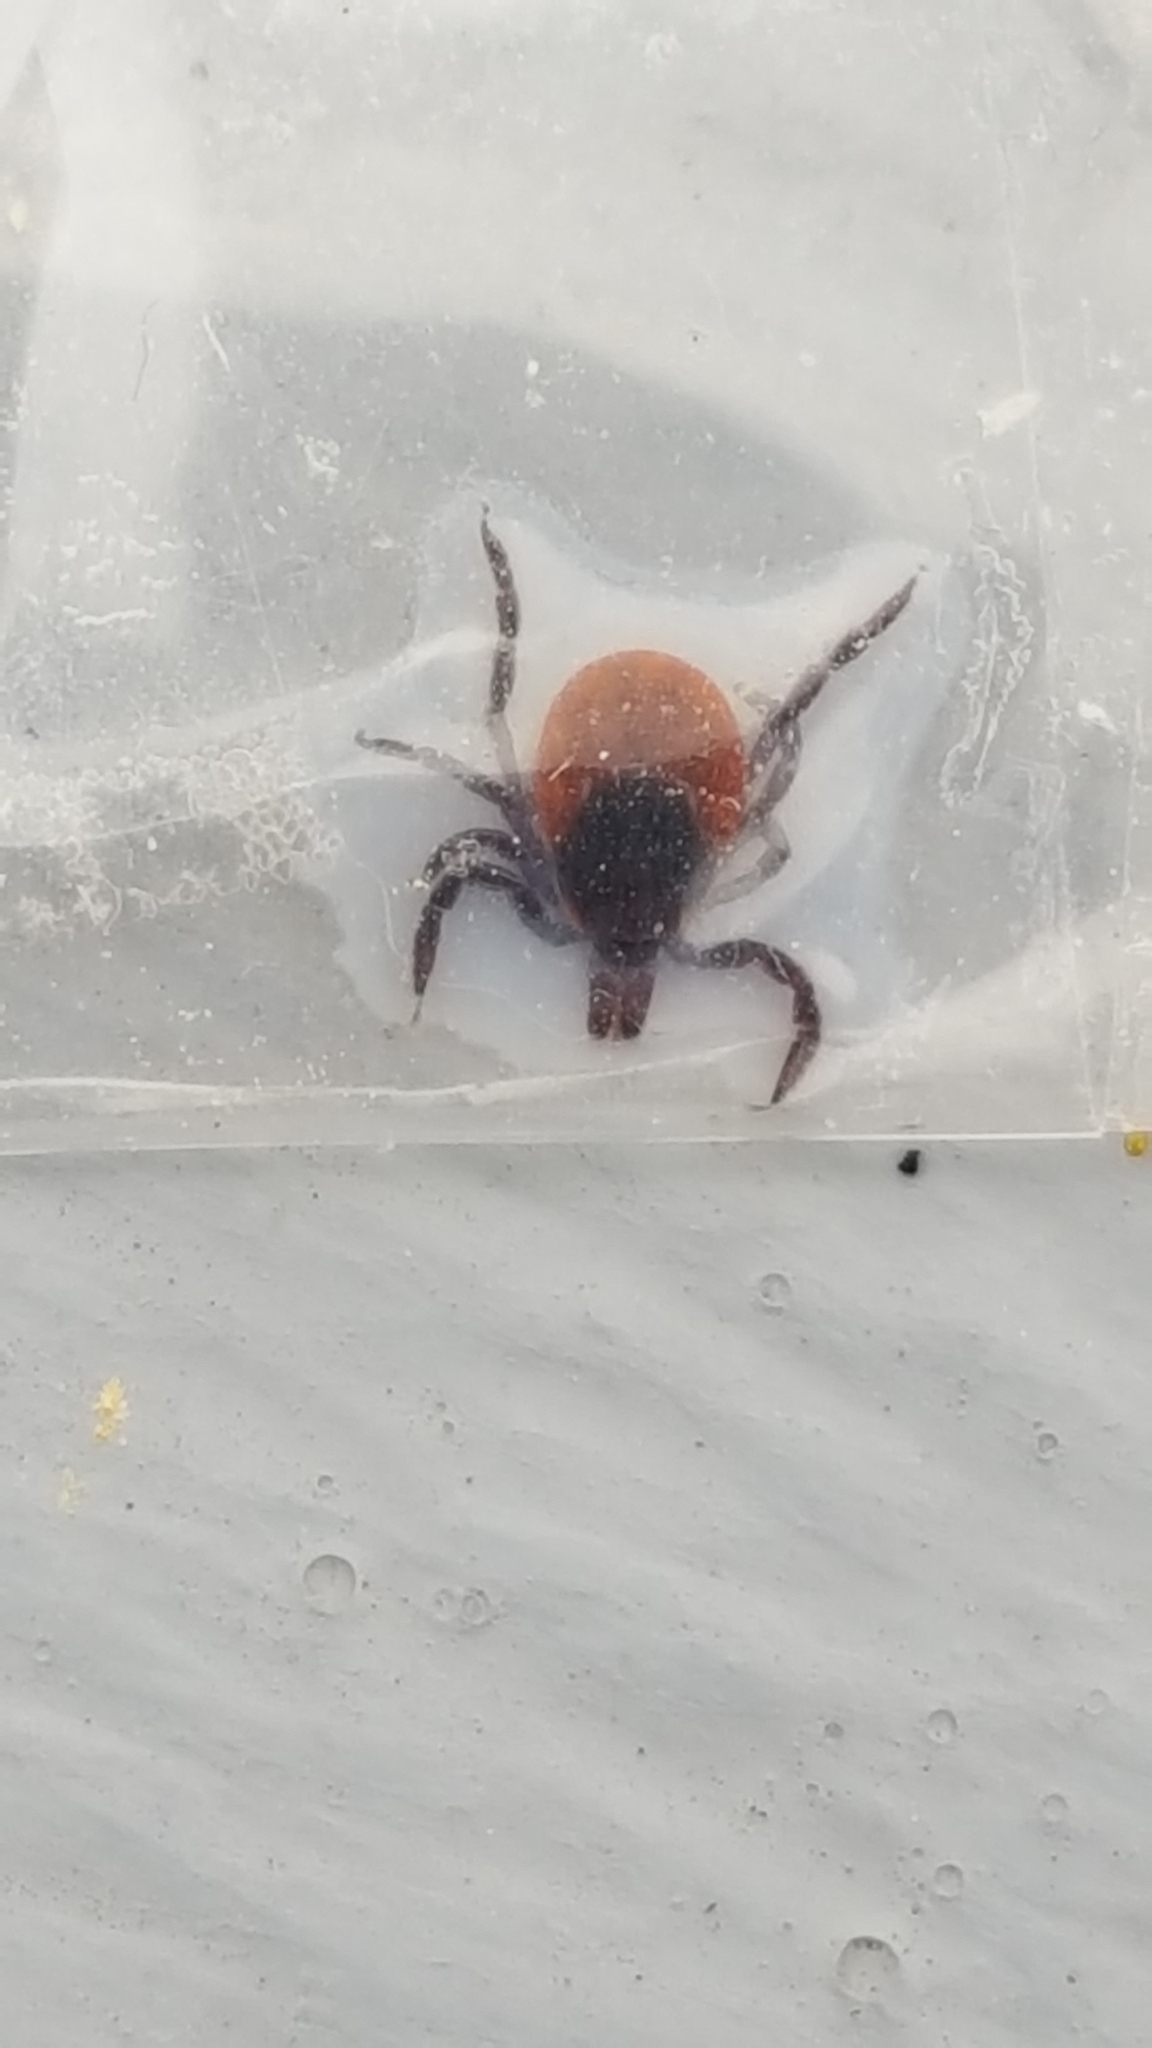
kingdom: Animalia
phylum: Arthropoda
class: Arachnida
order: Ixodida
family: Ixodidae
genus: Ixodes
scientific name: Ixodes scapularis
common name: Black legged tick
